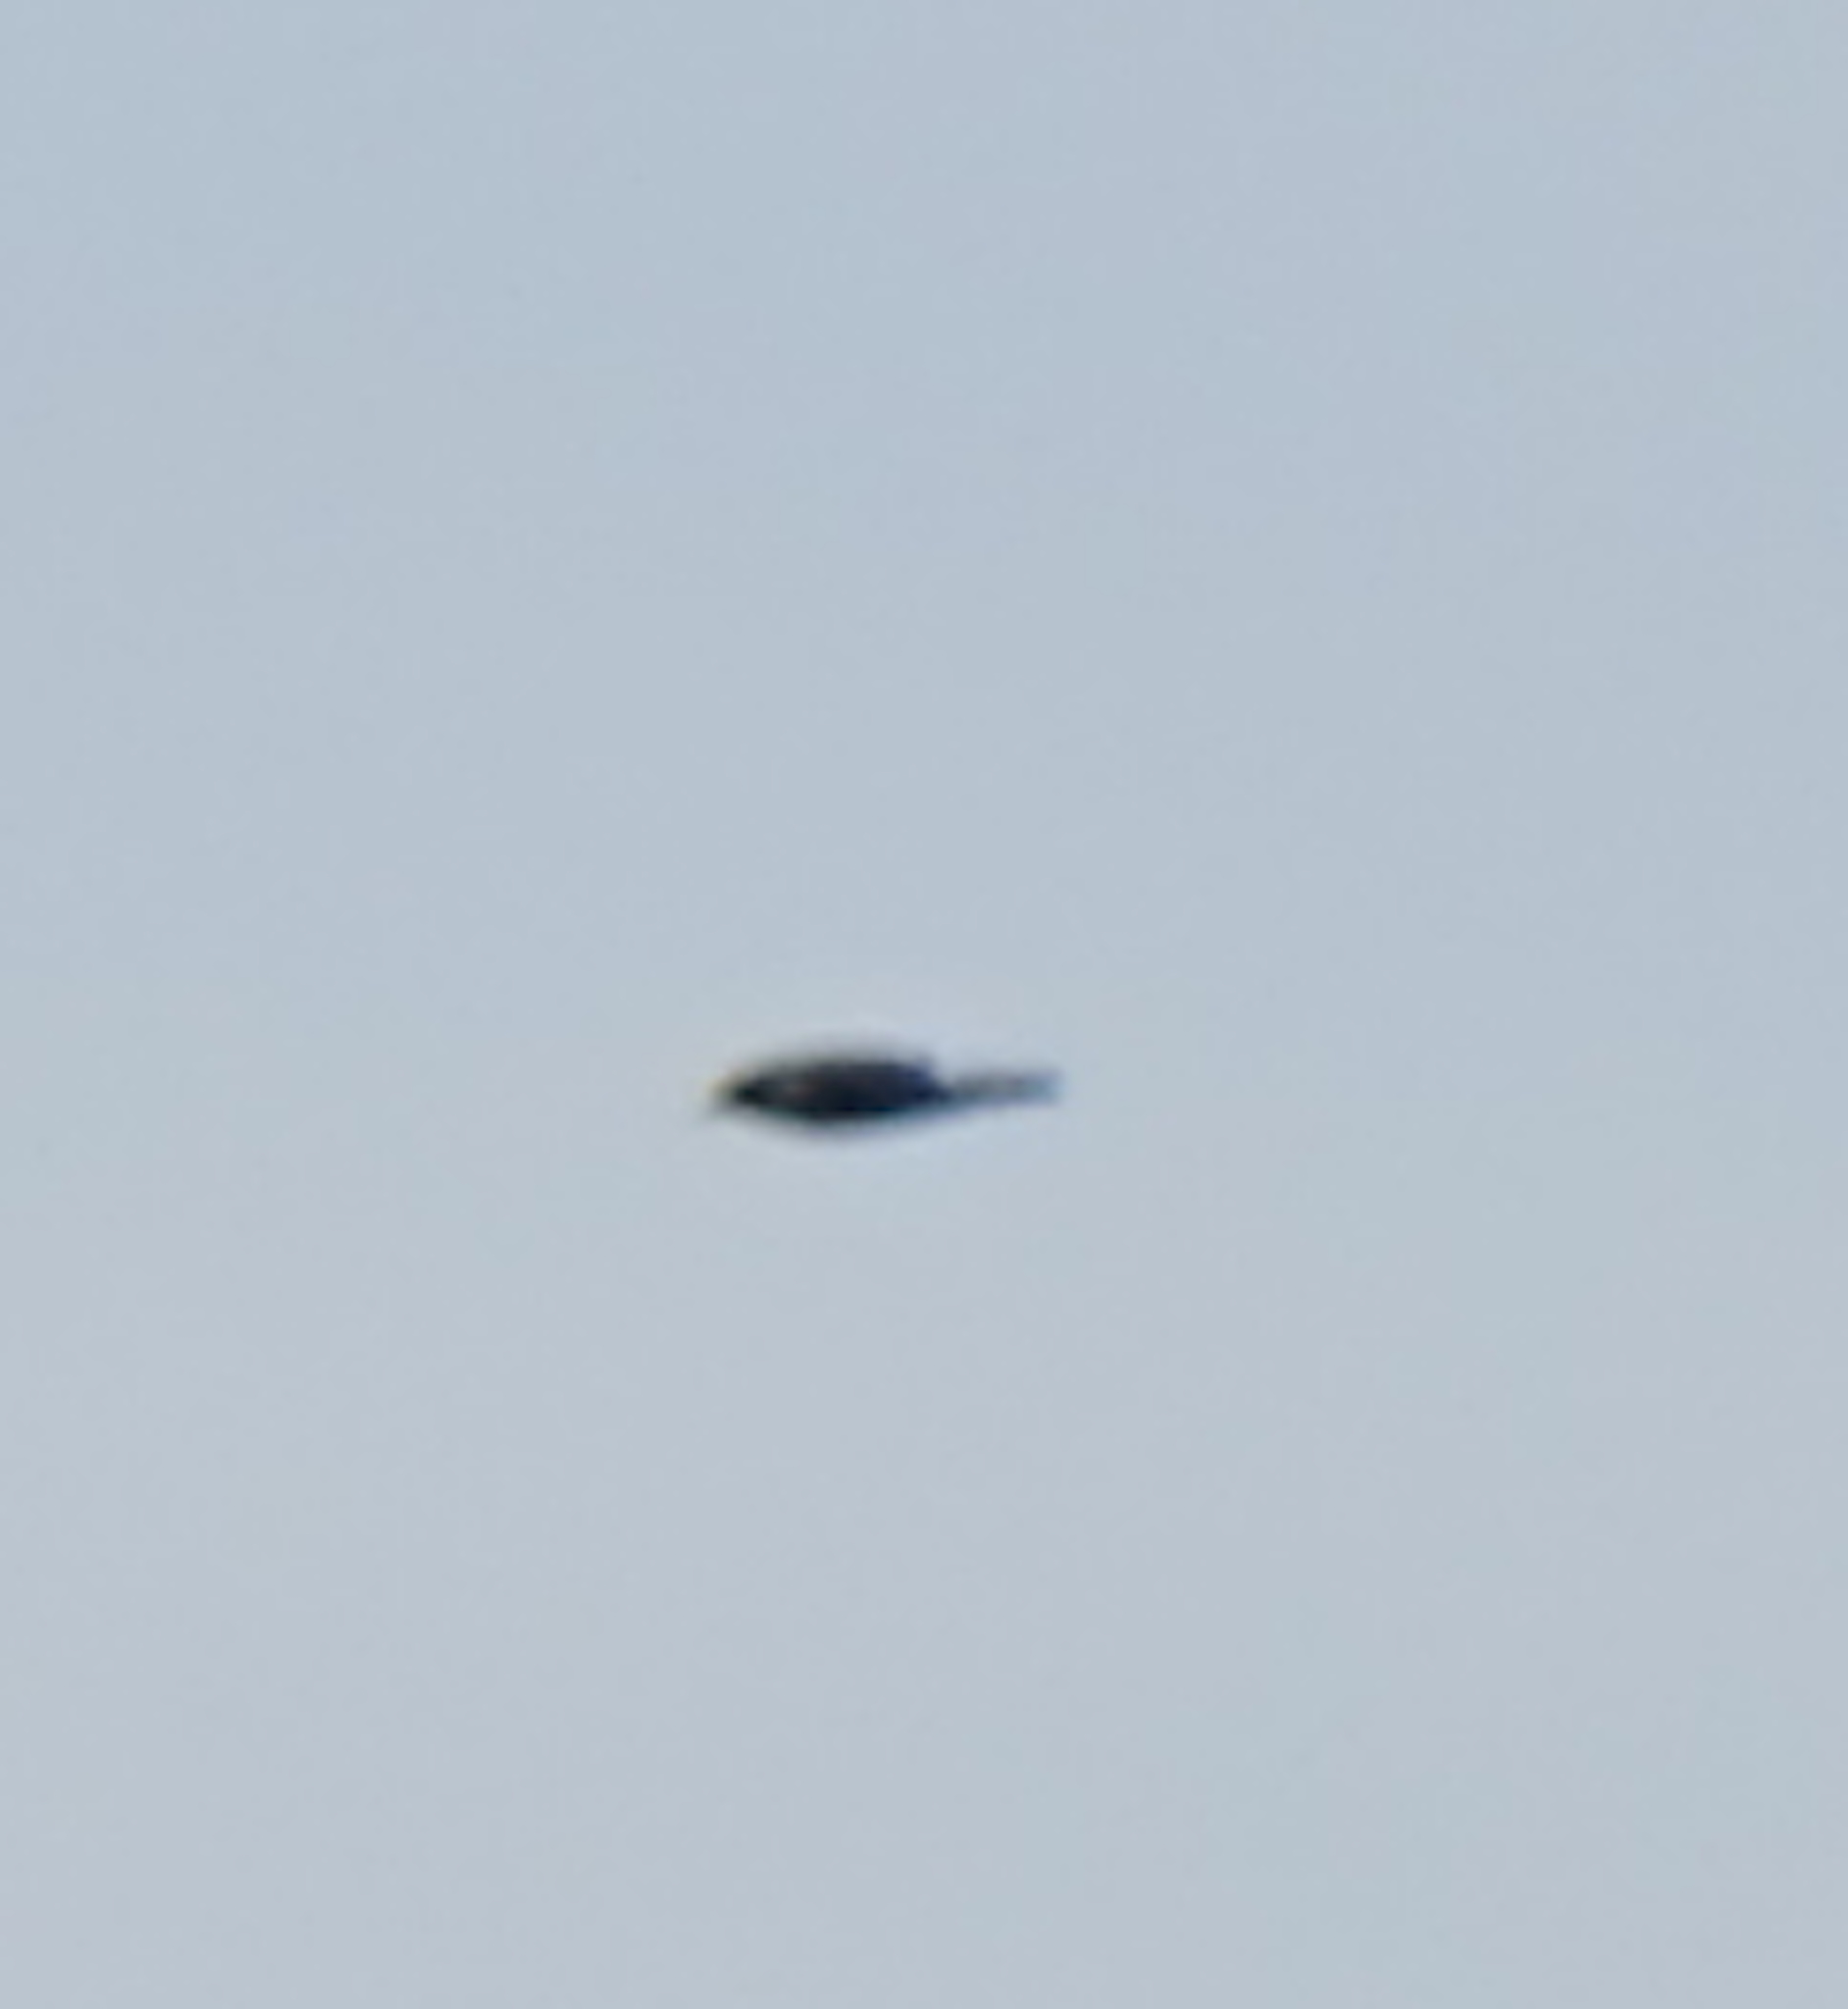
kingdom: Animalia
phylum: Chordata
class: Aves
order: Passeriformes
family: Artamidae
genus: Artamus
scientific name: Artamus leucoryn
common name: White-breasted woodswallow
